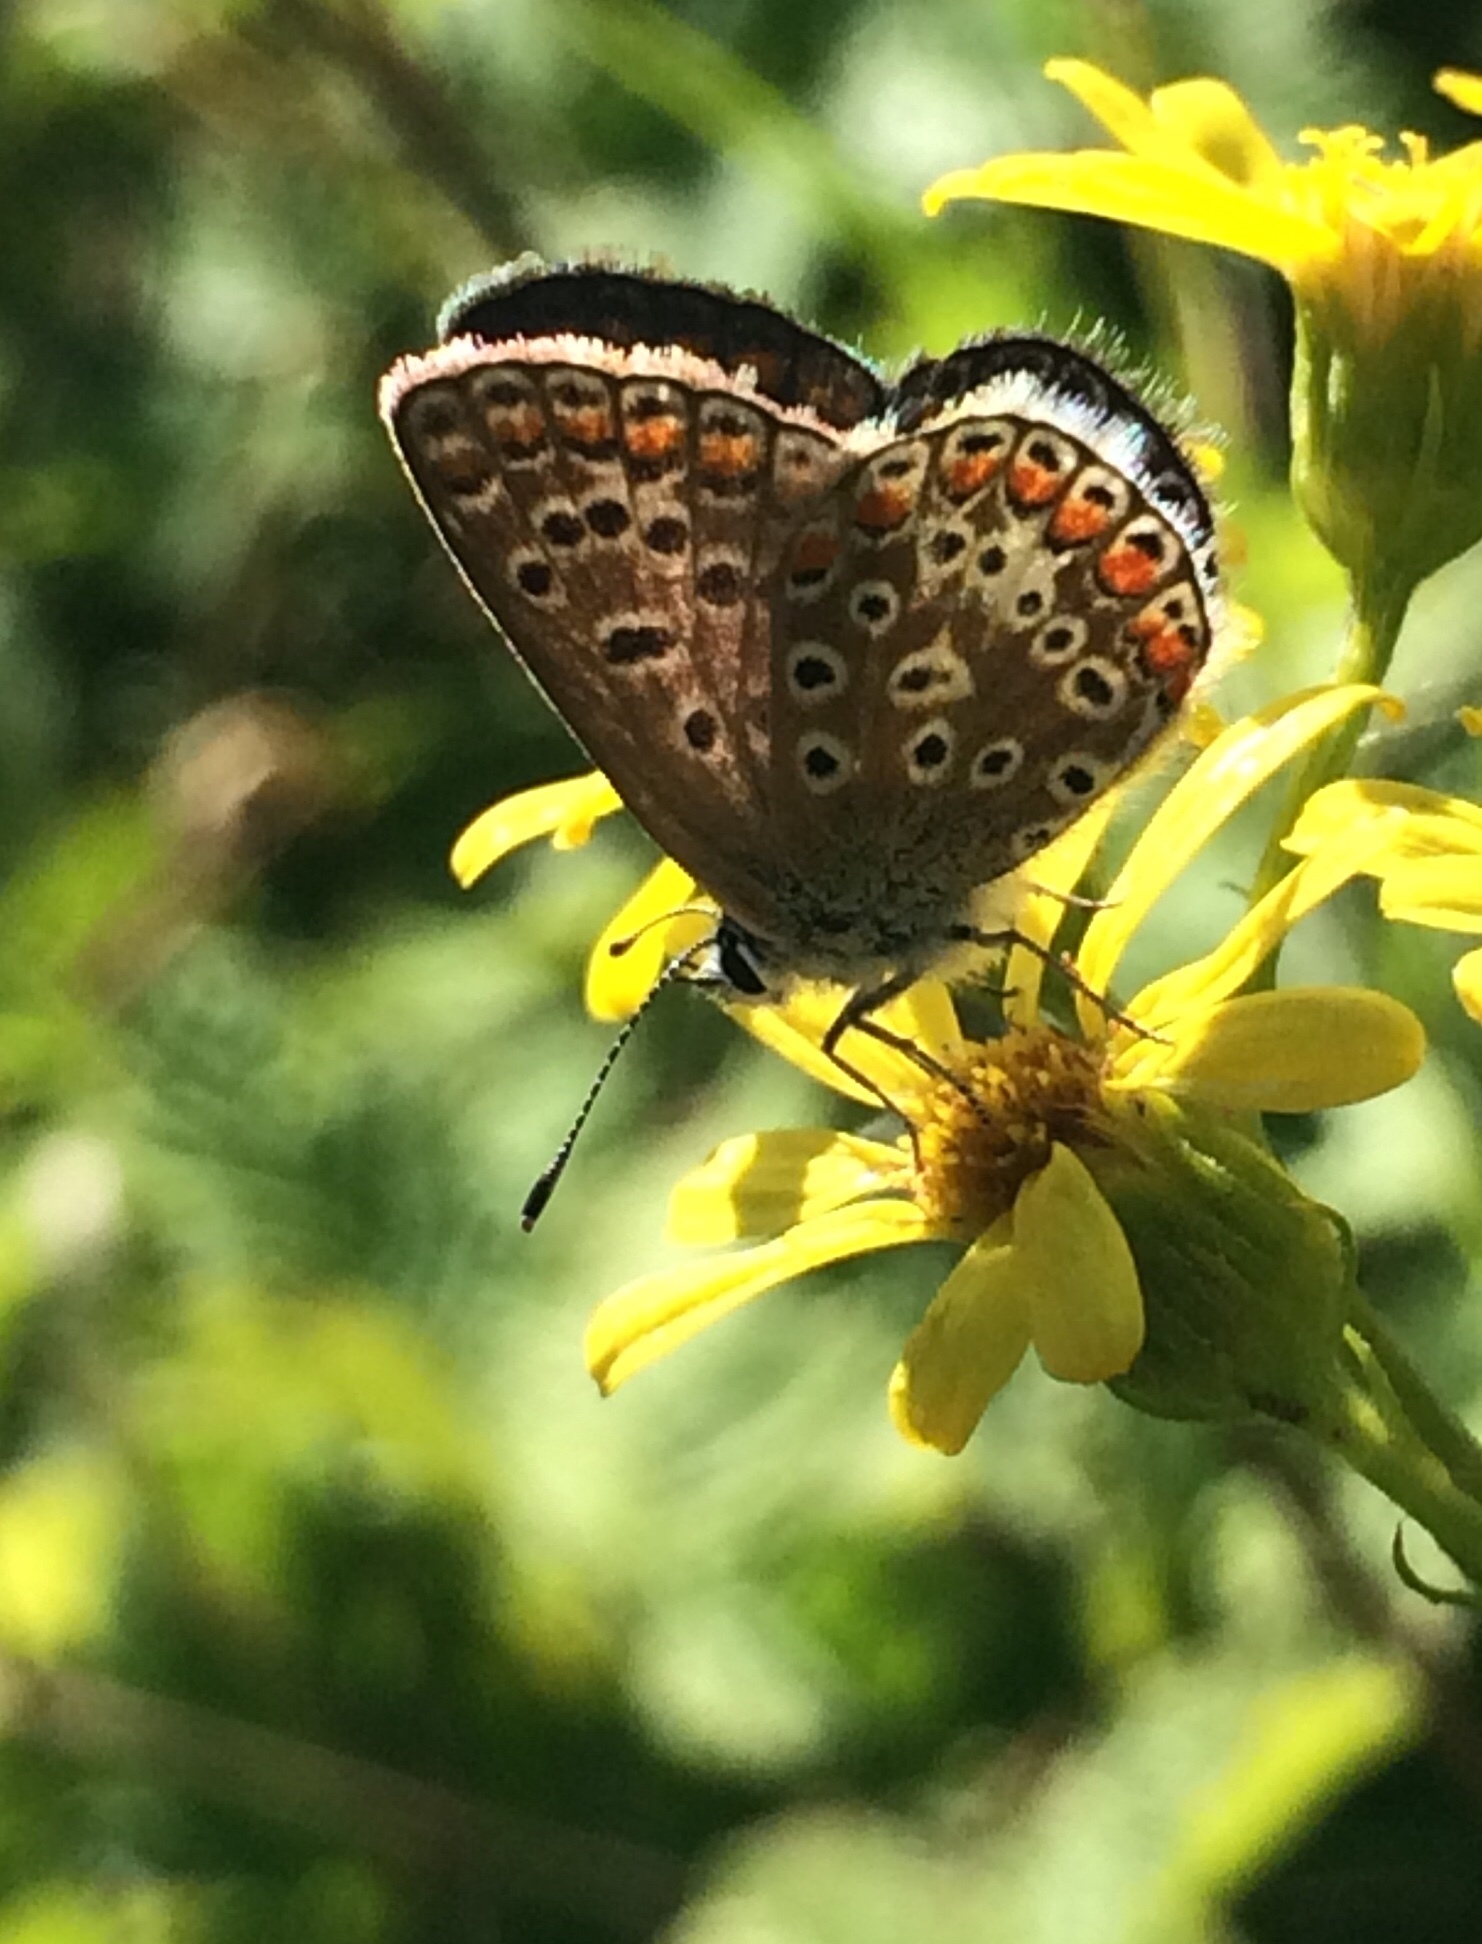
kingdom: Animalia
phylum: Arthropoda
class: Insecta
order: Lepidoptera
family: Lycaenidae
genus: Polyommatus
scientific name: Polyommatus icarus
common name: Common blue
